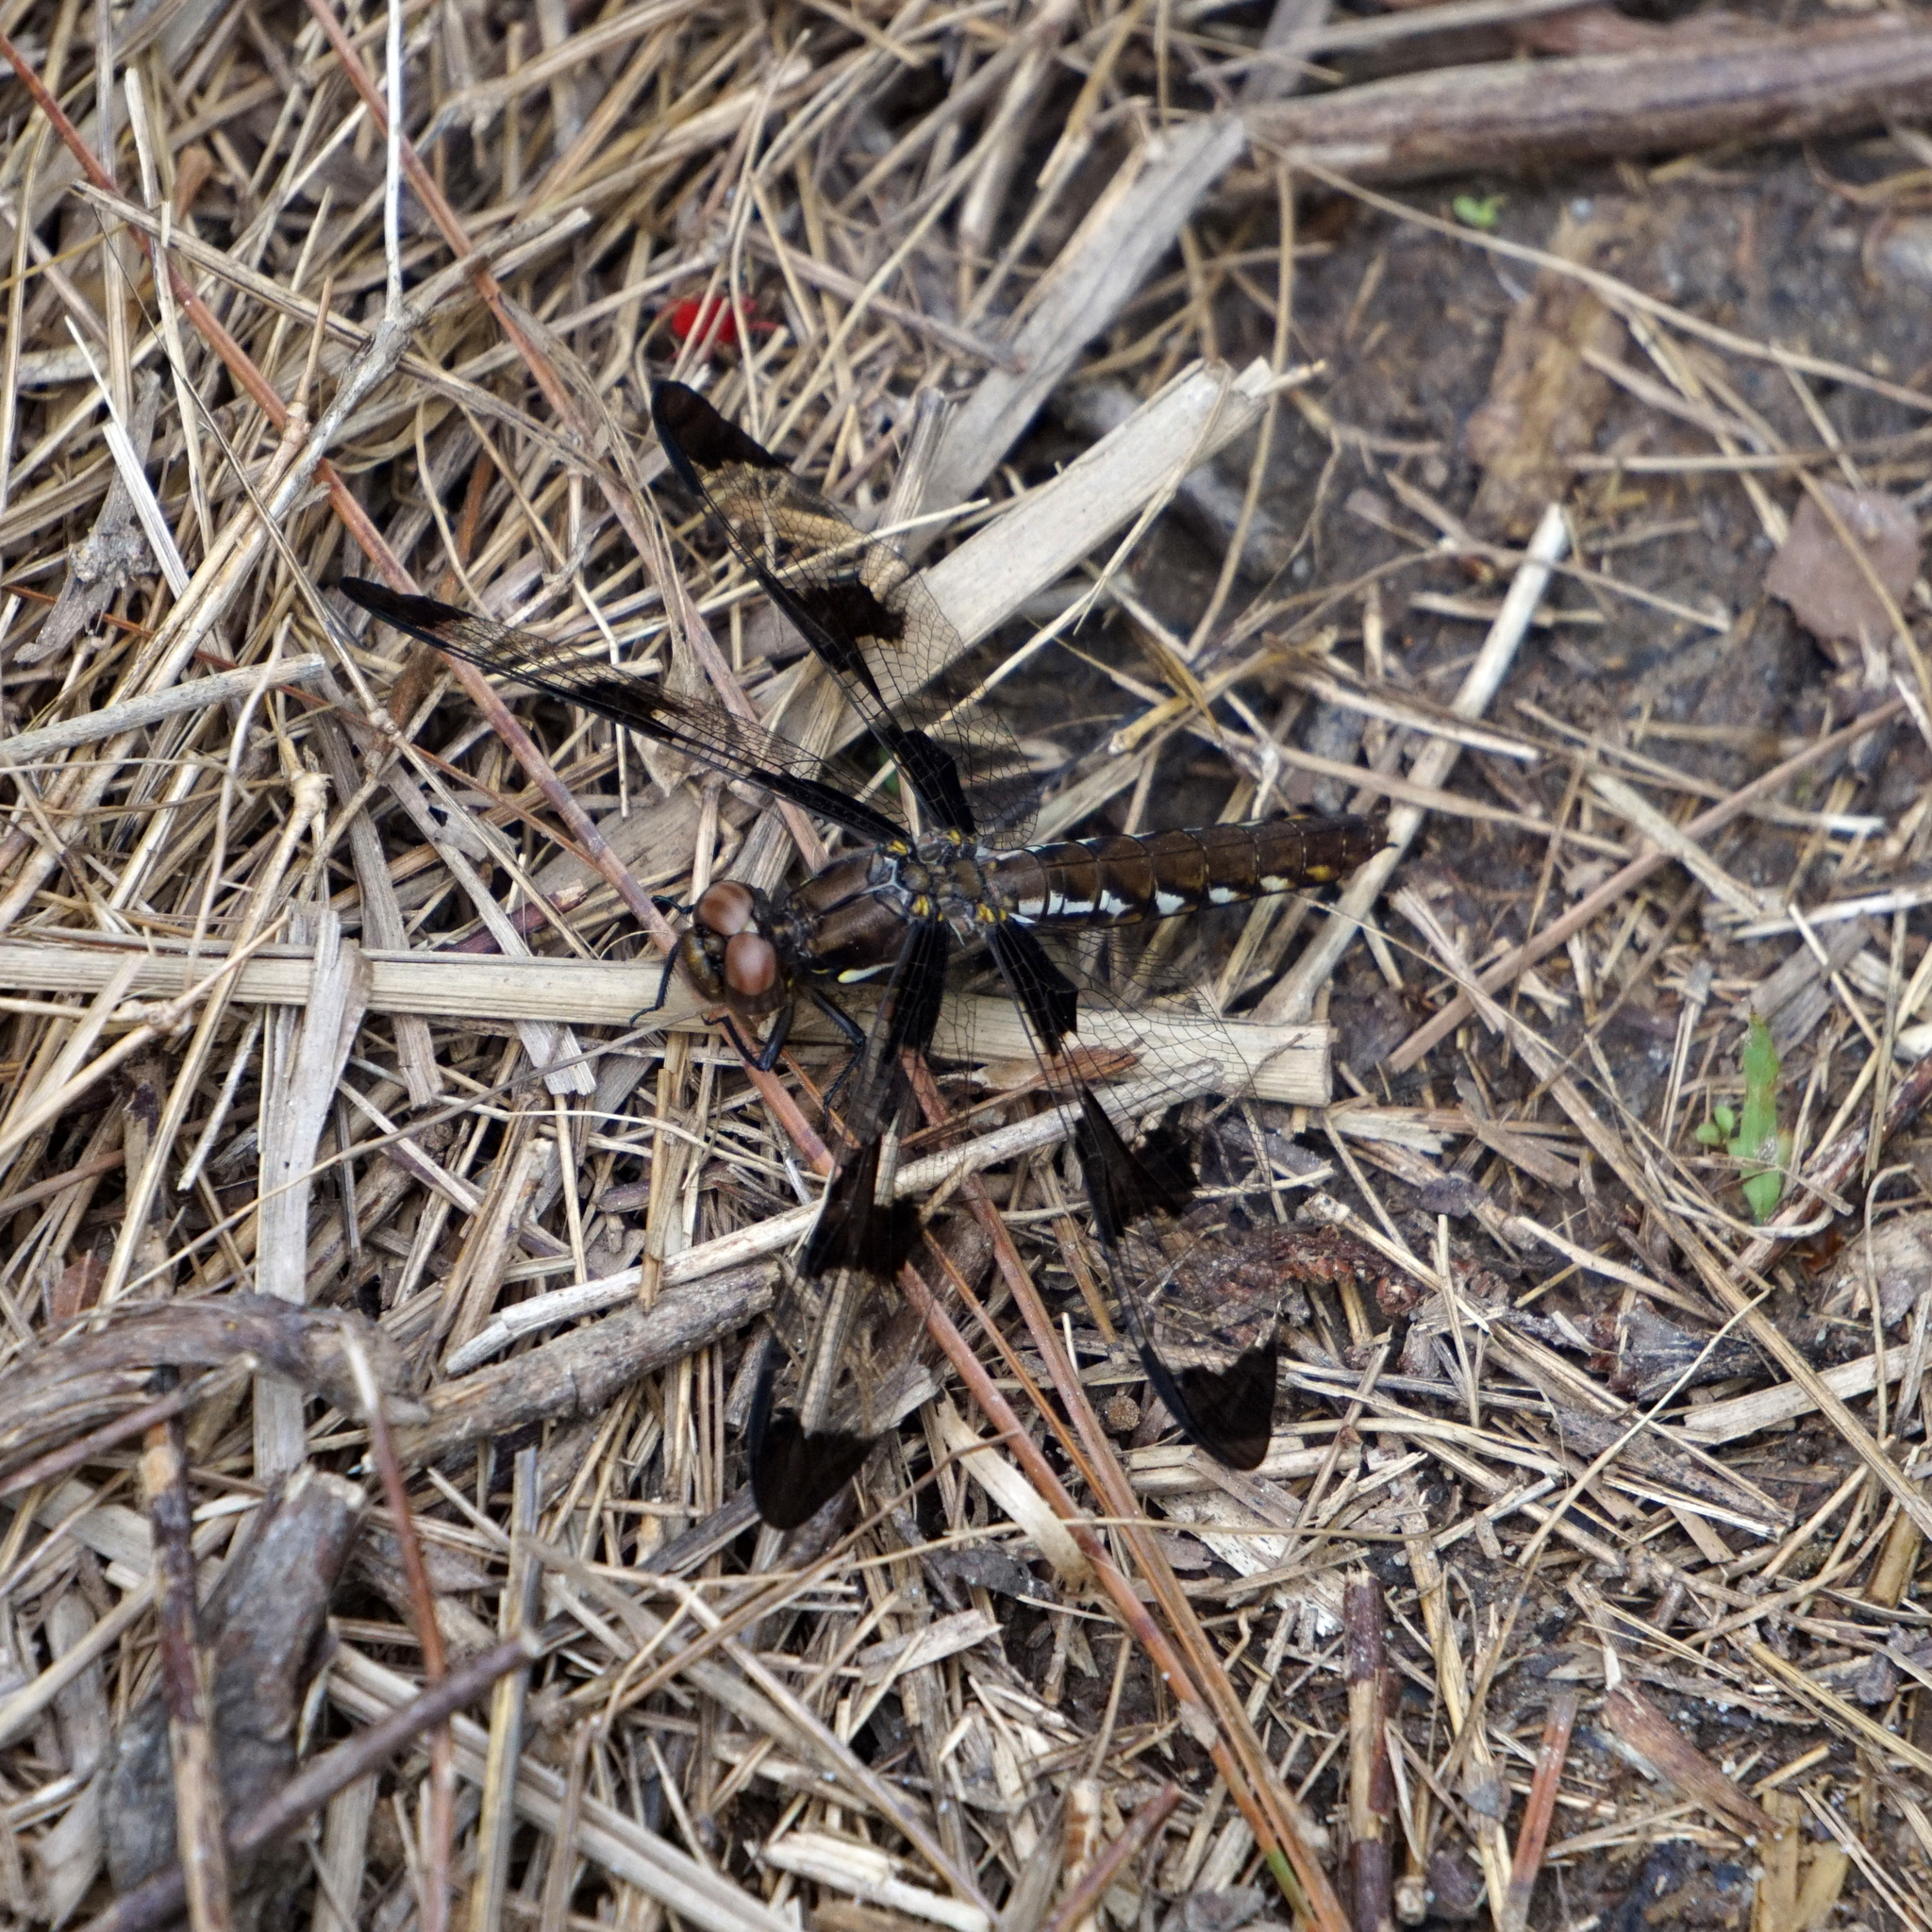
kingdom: Animalia
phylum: Arthropoda
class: Insecta
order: Odonata
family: Libellulidae
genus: Plathemis
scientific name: Plathemis lydia
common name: Common whitetail
